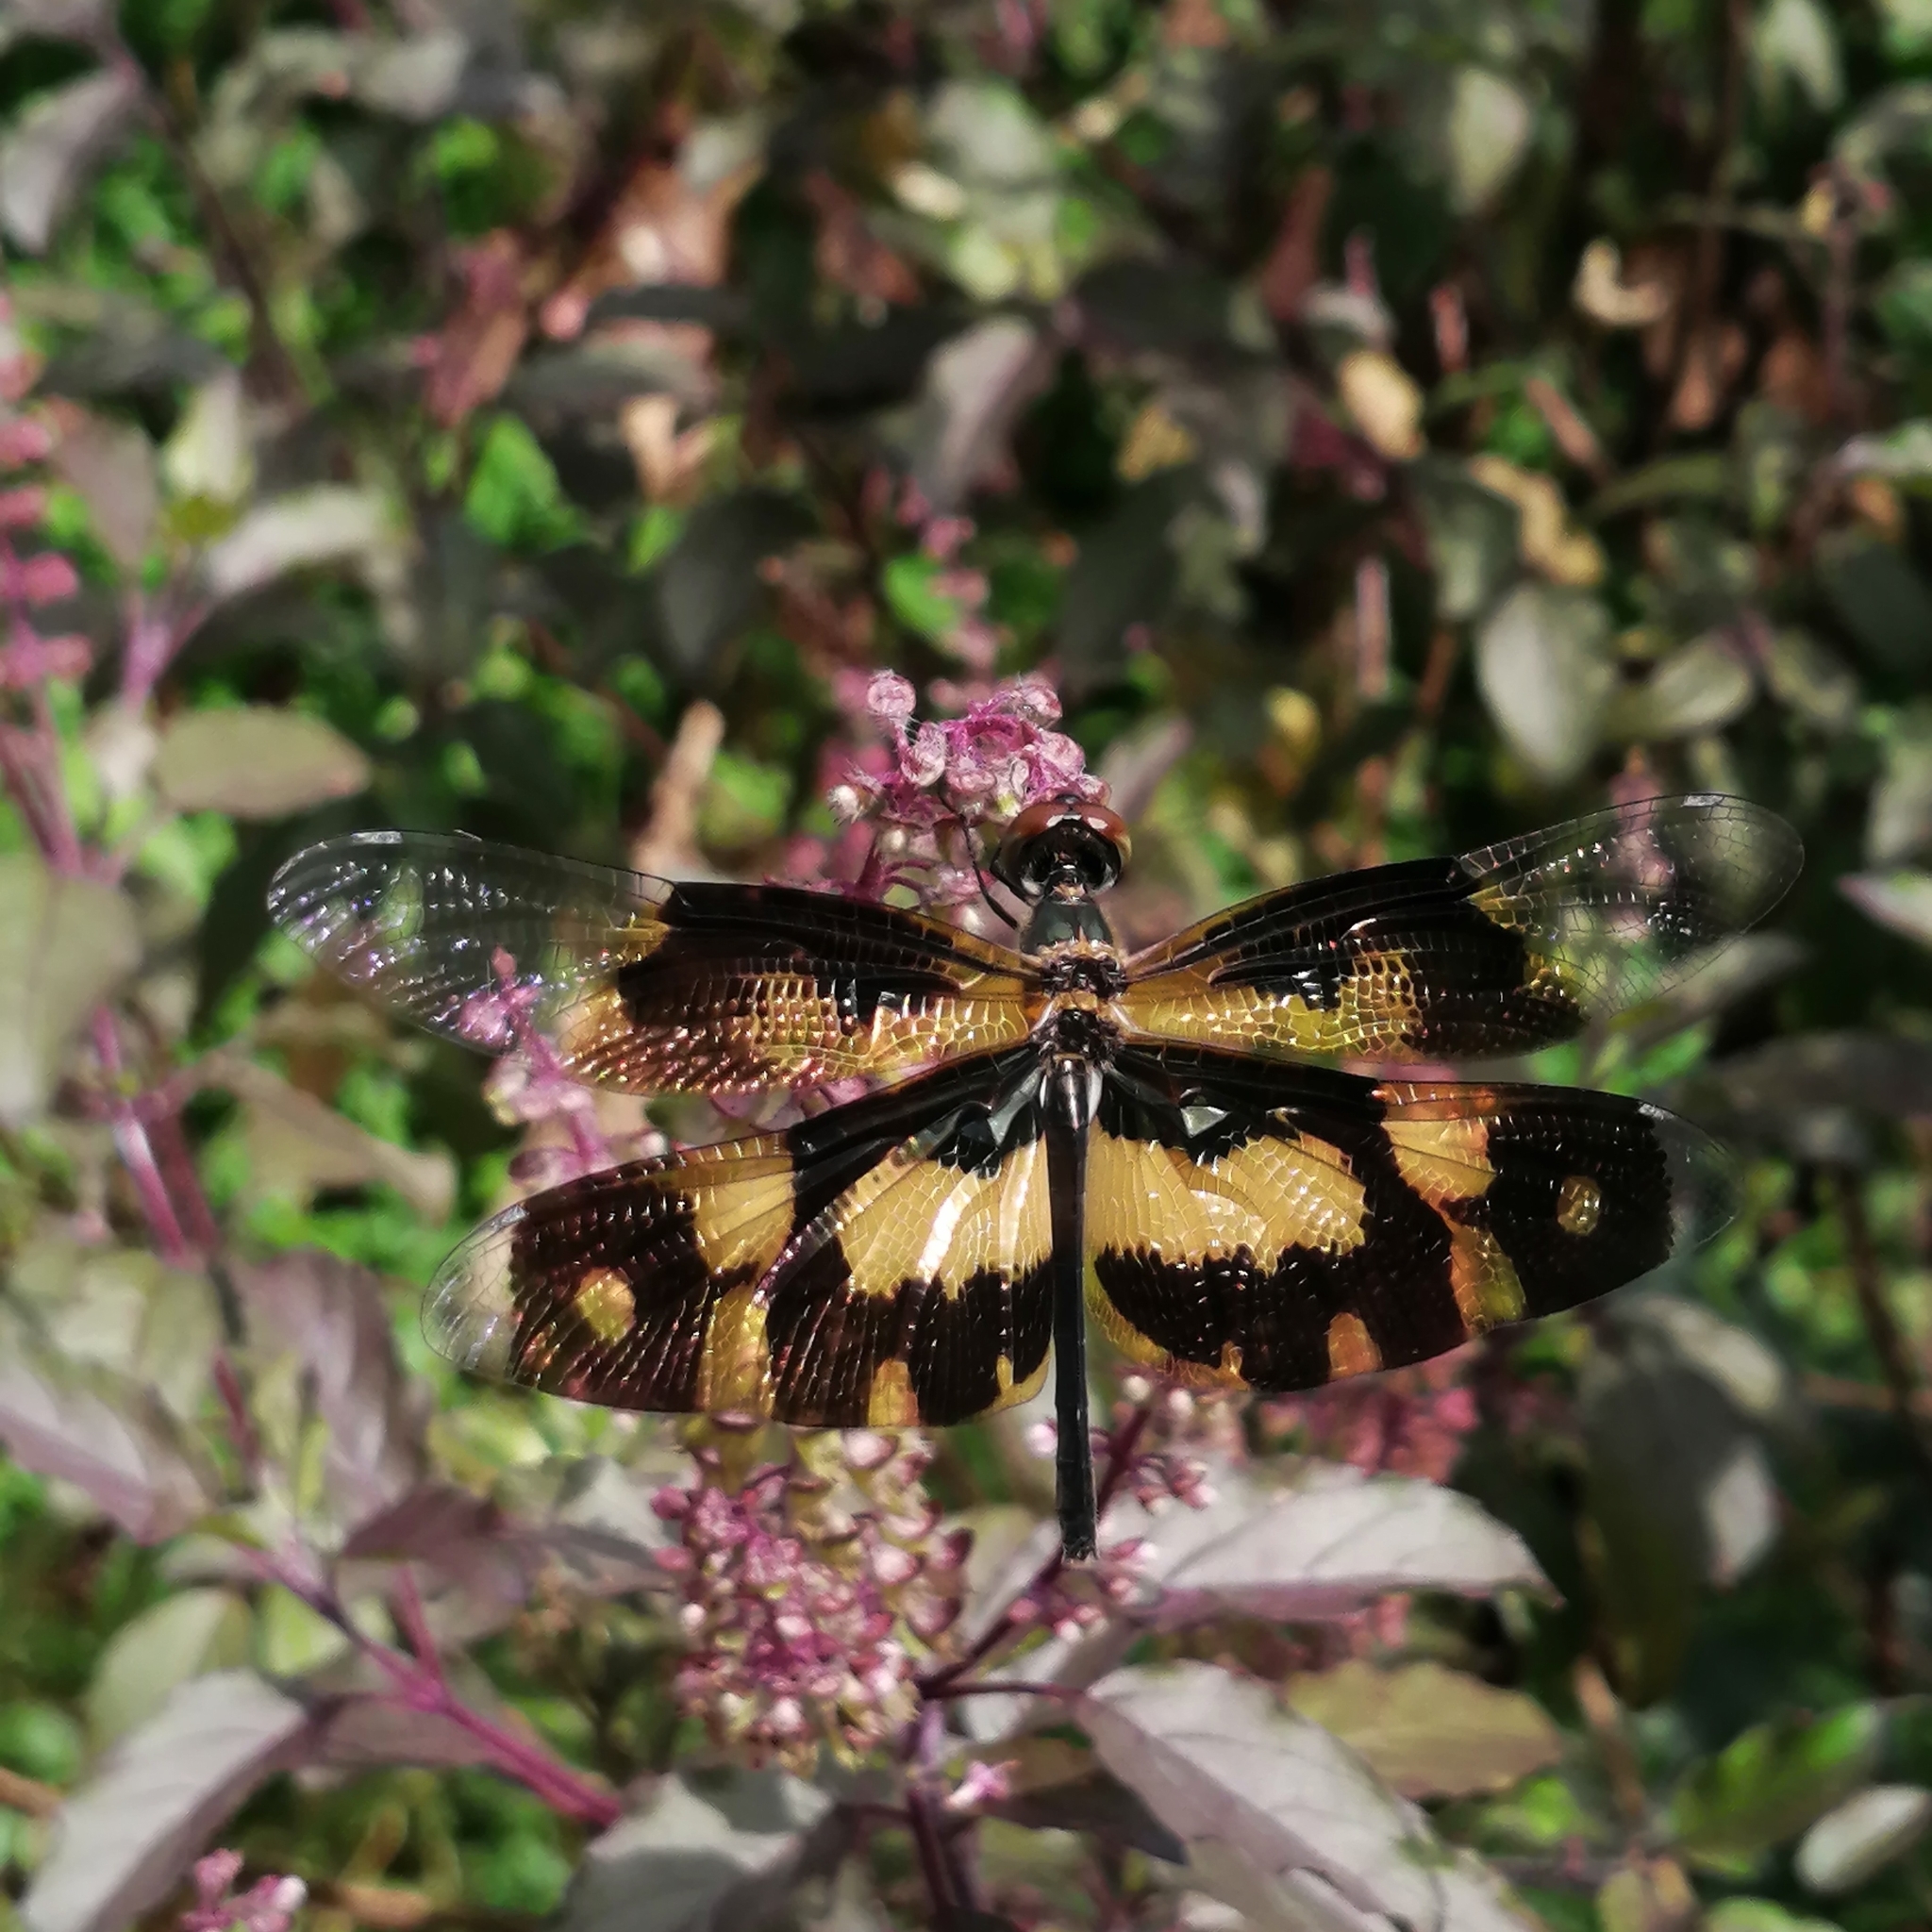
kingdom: Animalia
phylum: Arthropoda
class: Insecta
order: Odonata
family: Libellulidae
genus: Rhyothemis
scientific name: Rhyothemis variegata
